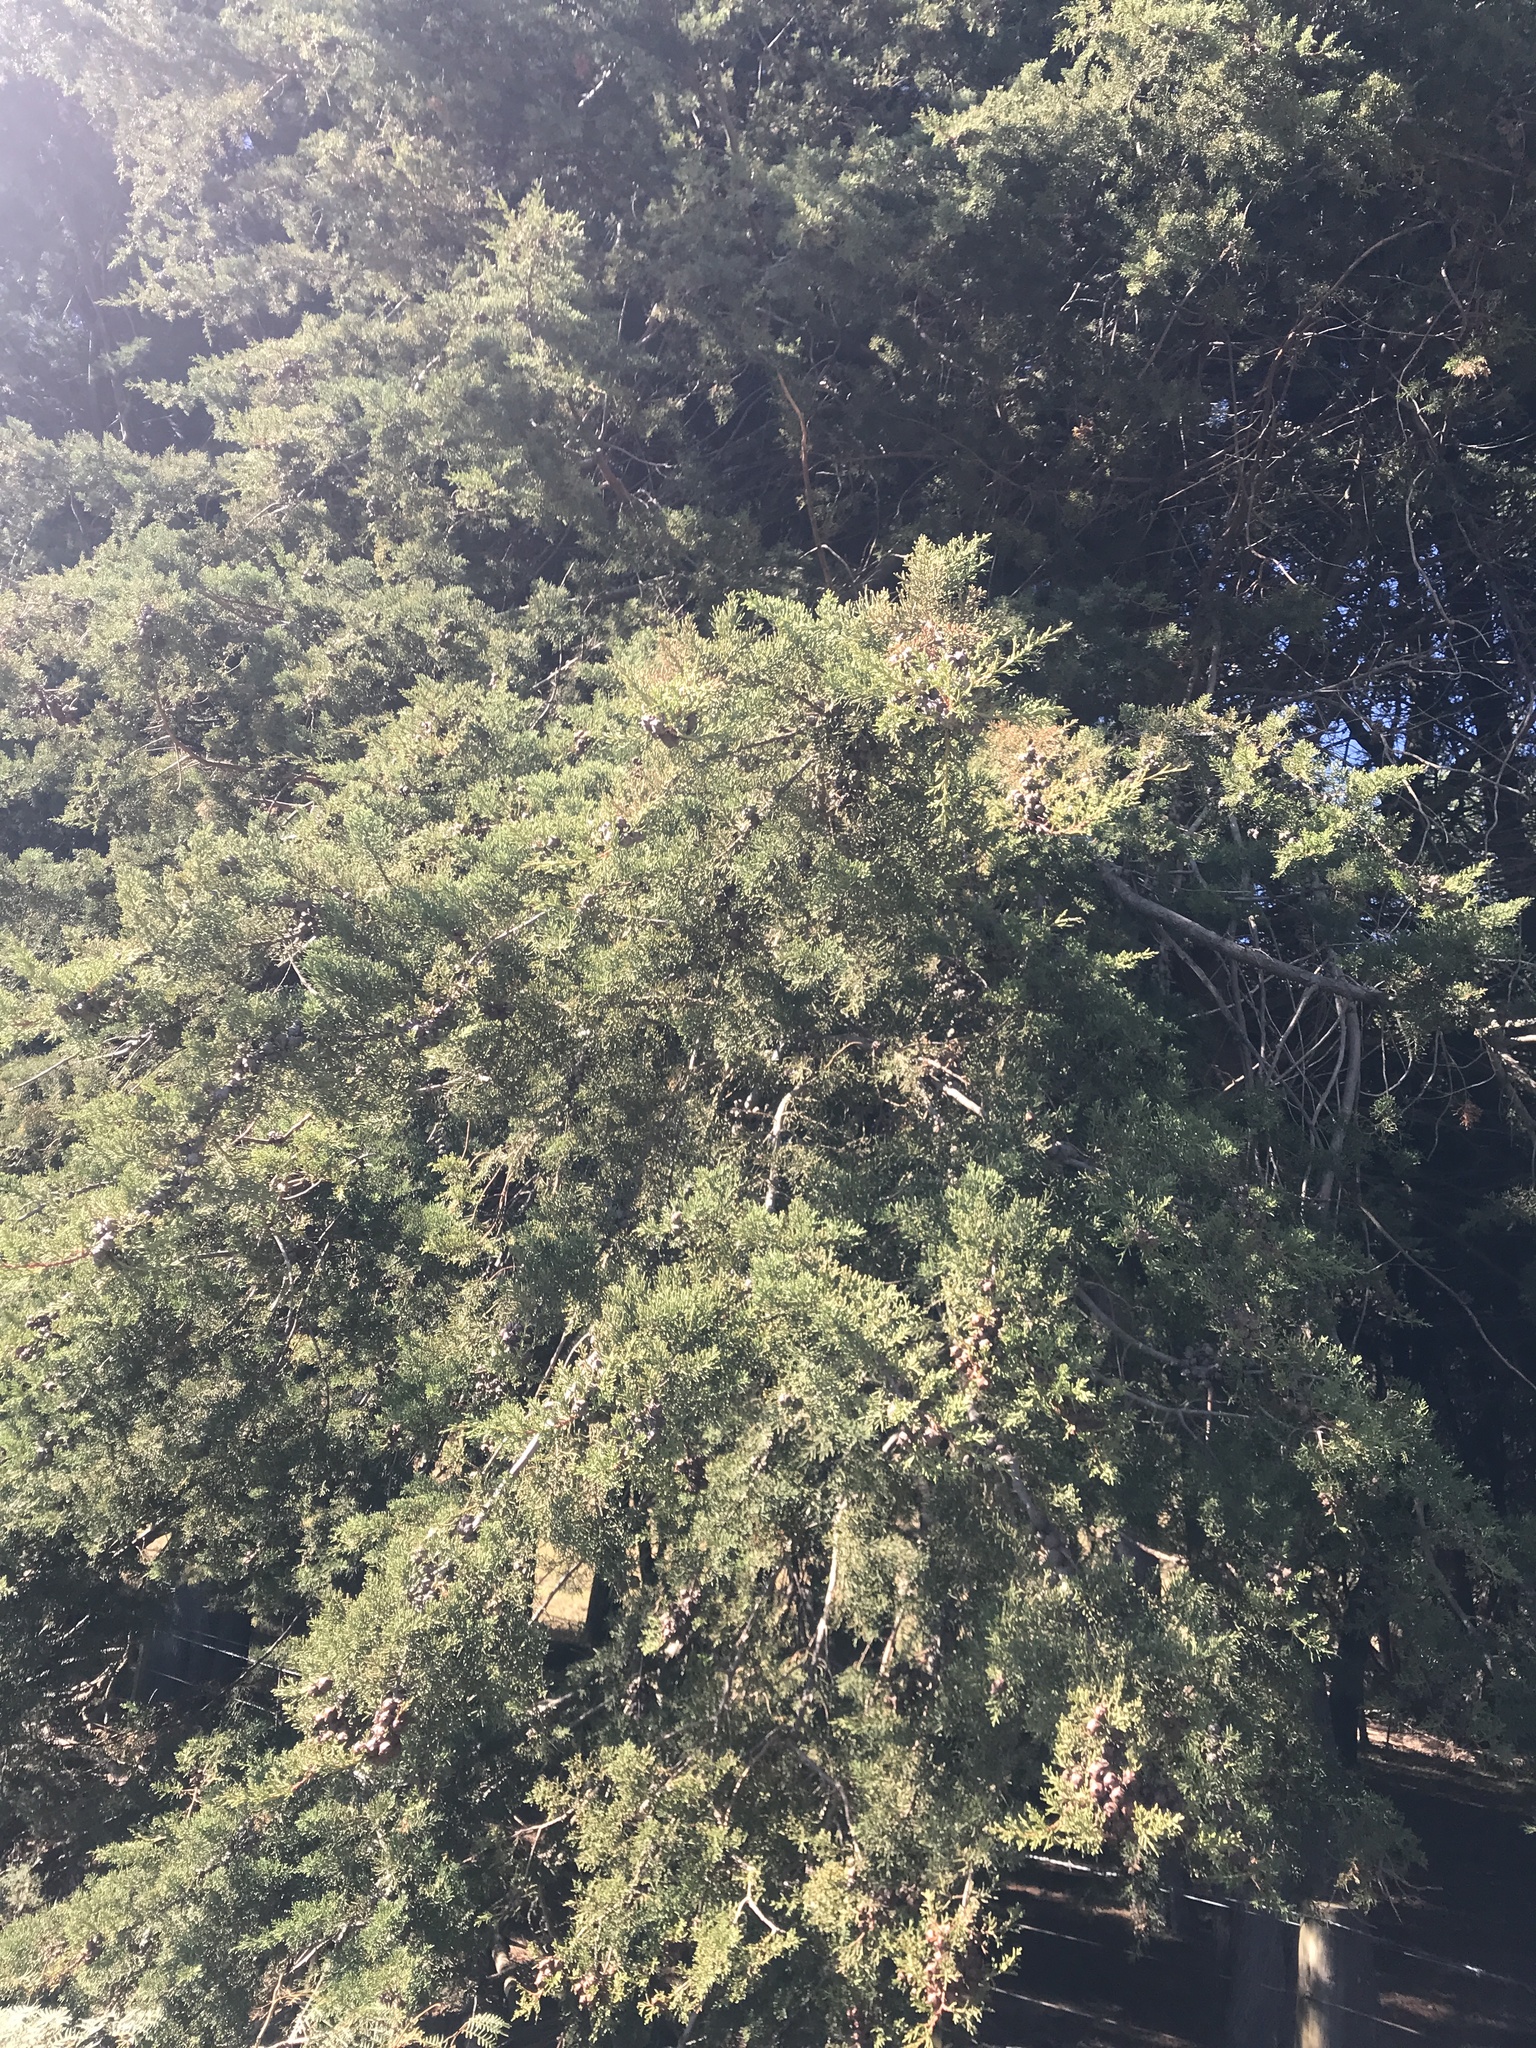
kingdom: Plantae
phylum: Tracheophyta
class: Pinopsida
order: Pinales
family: Cupressaceae
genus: Cupressus
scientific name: Cupressus macrocarpa
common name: Monterey cypress
